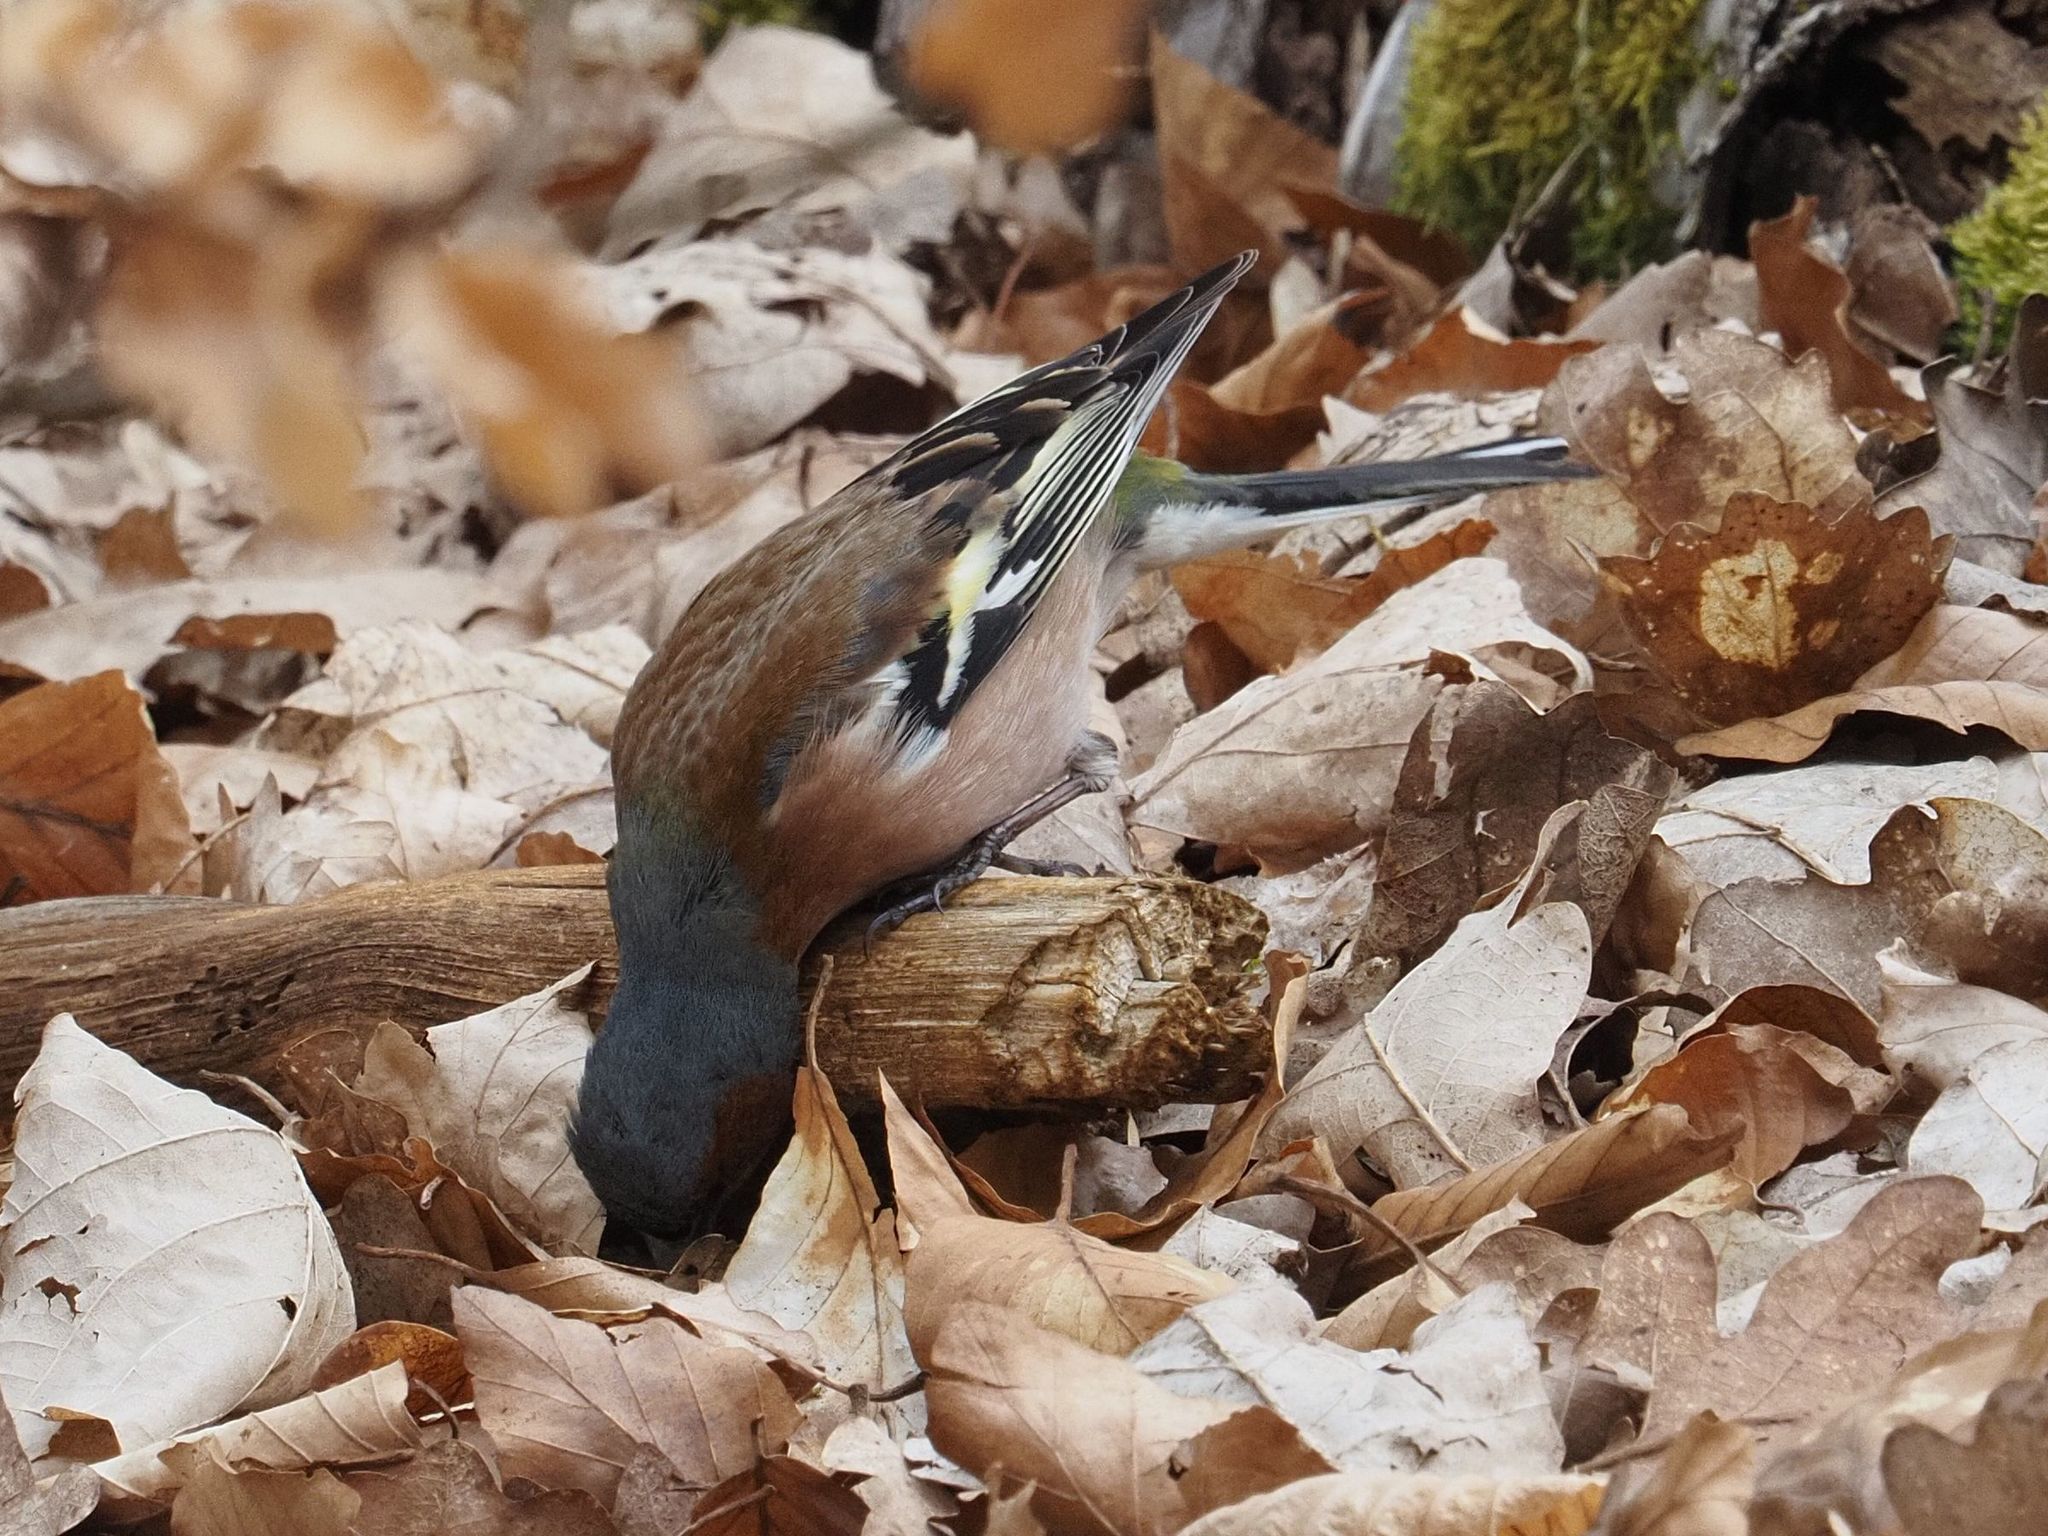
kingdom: Animalia
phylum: Chordata
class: Aves
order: Passeriformes
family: Fringillidae
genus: Fringilla
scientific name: Fringilla coelebs
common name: Common chaffinch
